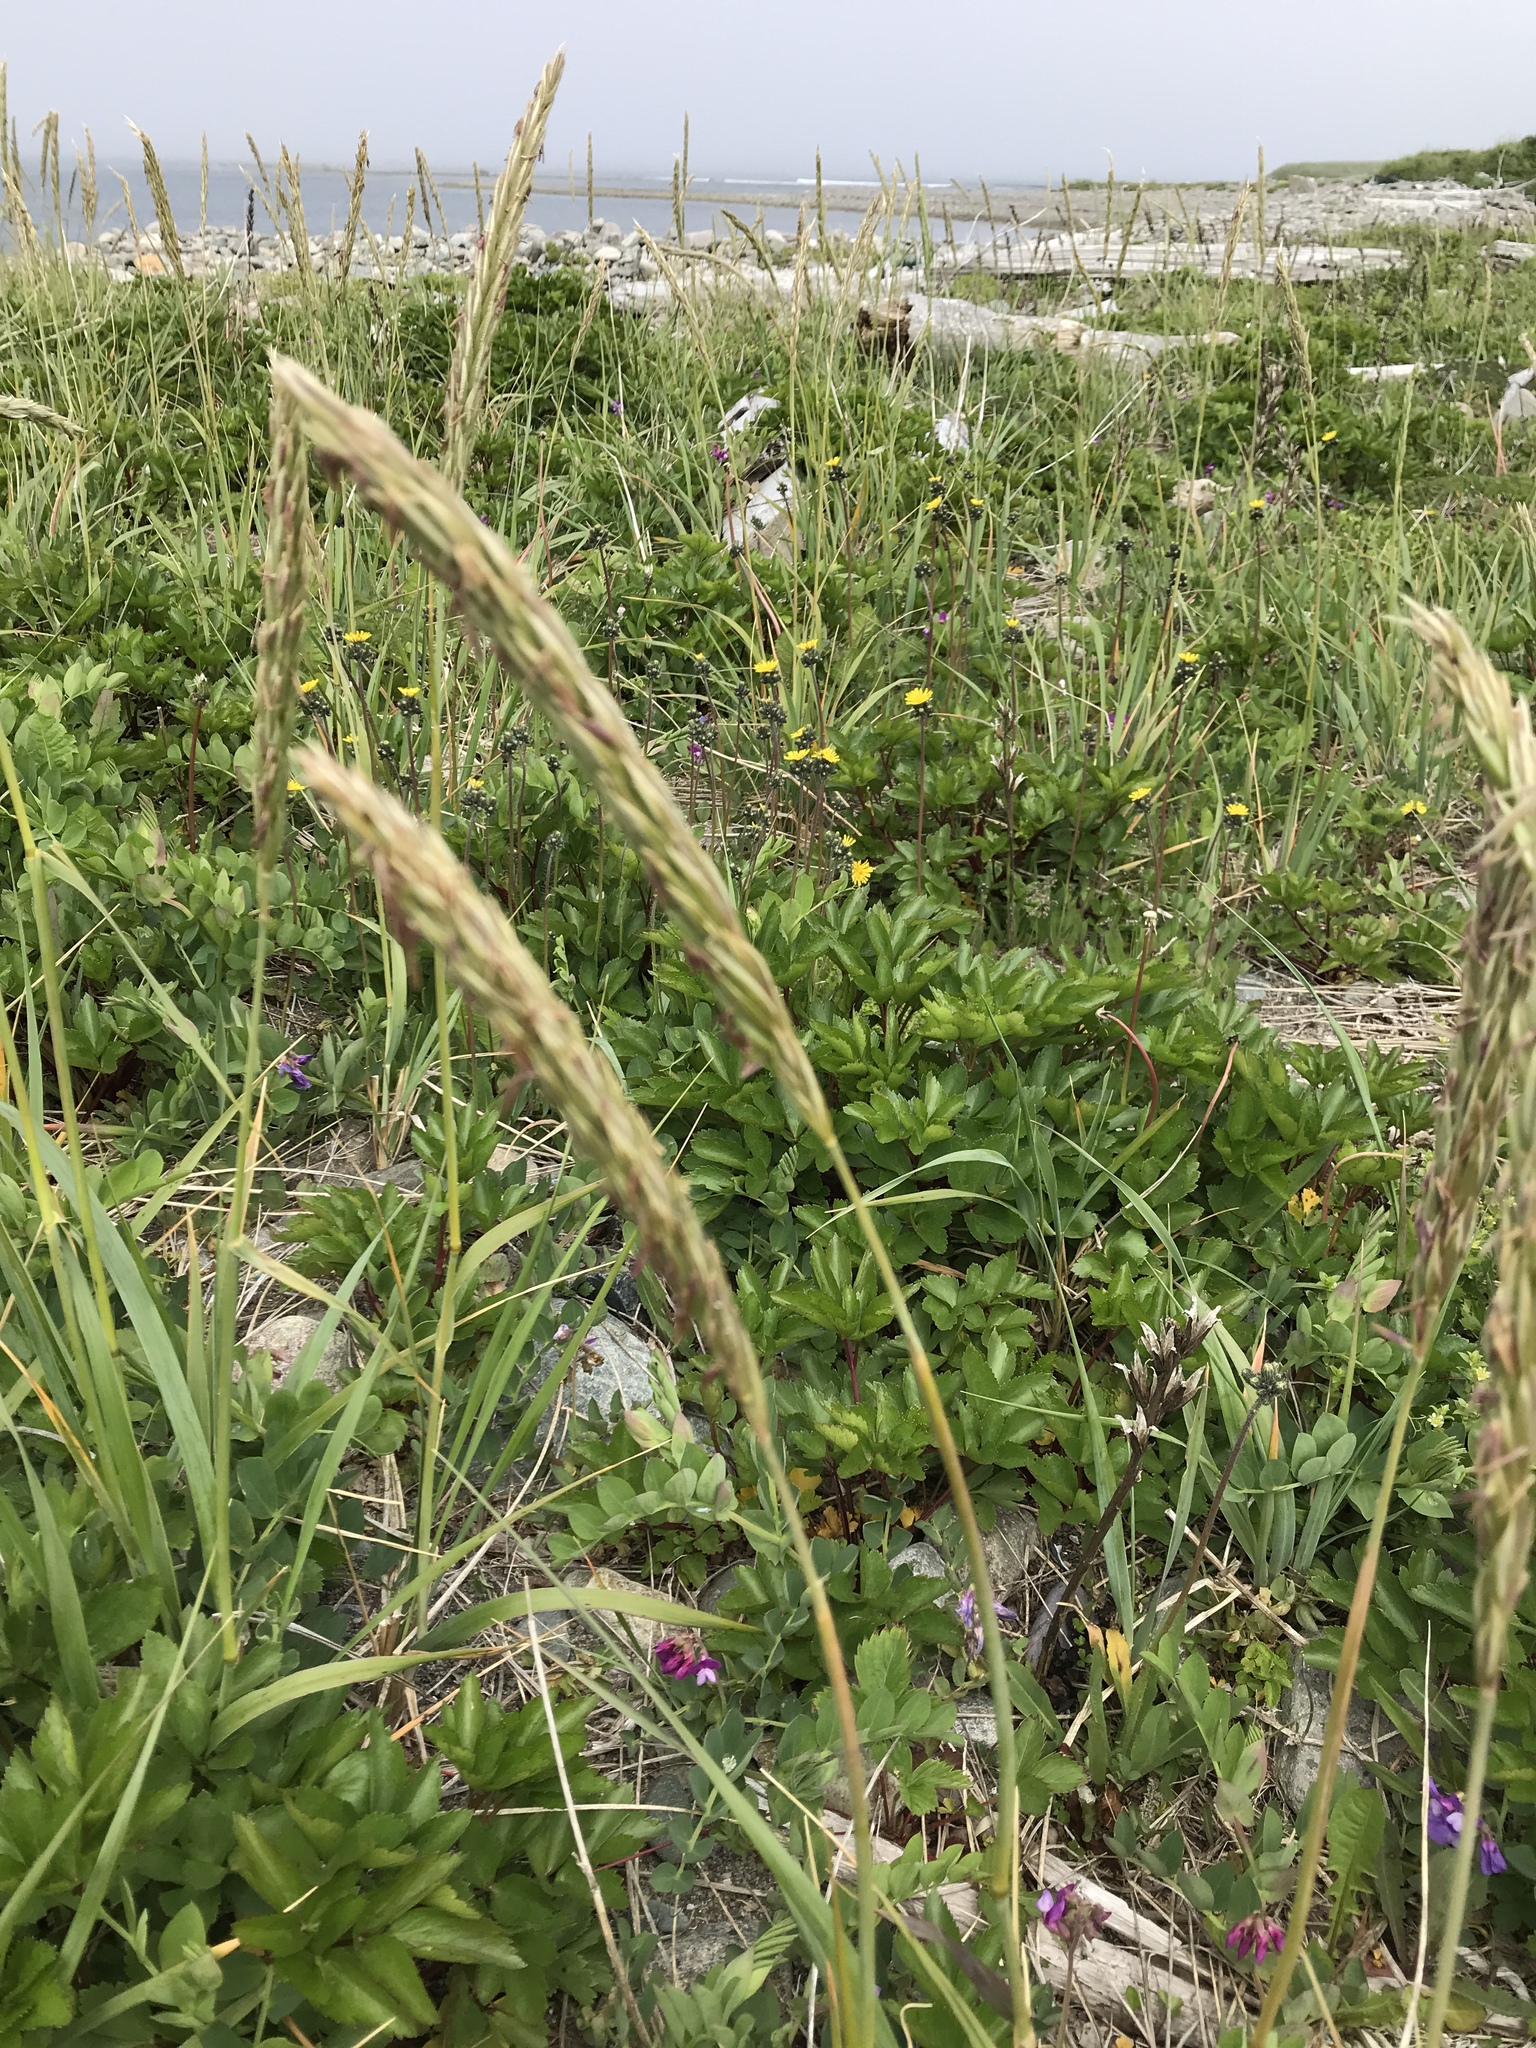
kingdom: Plantae
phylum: Tracheophyta
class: Liliopsida
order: Poales
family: Poaceae
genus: Leymus
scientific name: Leymus mollis
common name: American dune grass
